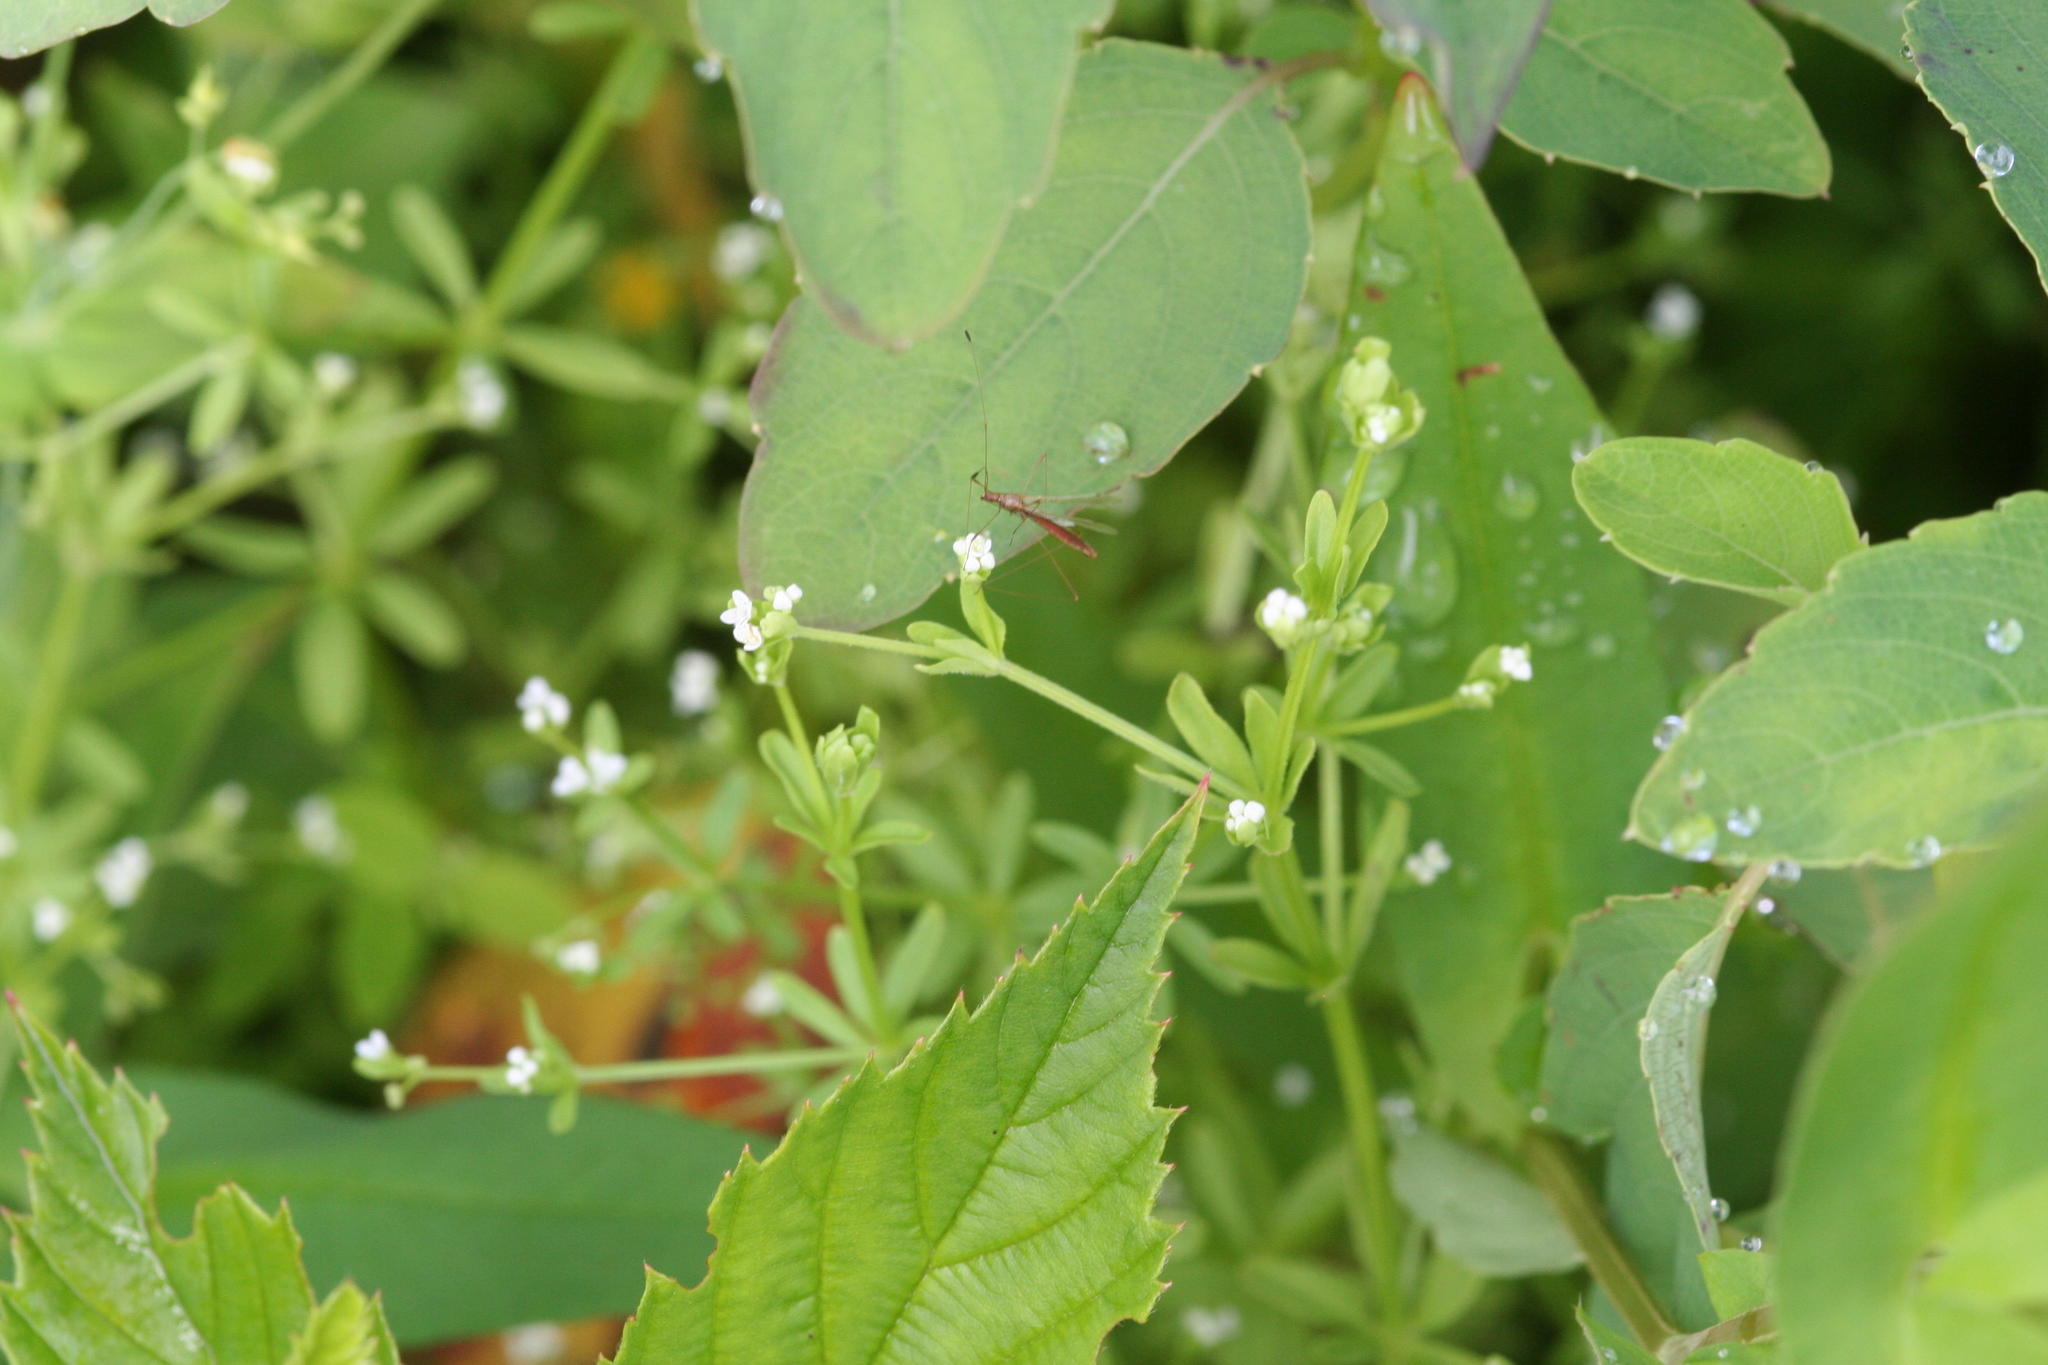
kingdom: Plantae
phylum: Tracheophyta
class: Magnoliopsida
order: Gentianales
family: Rubiaceae
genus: Galium
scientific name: Galium tinctorium
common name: Bedstraw
